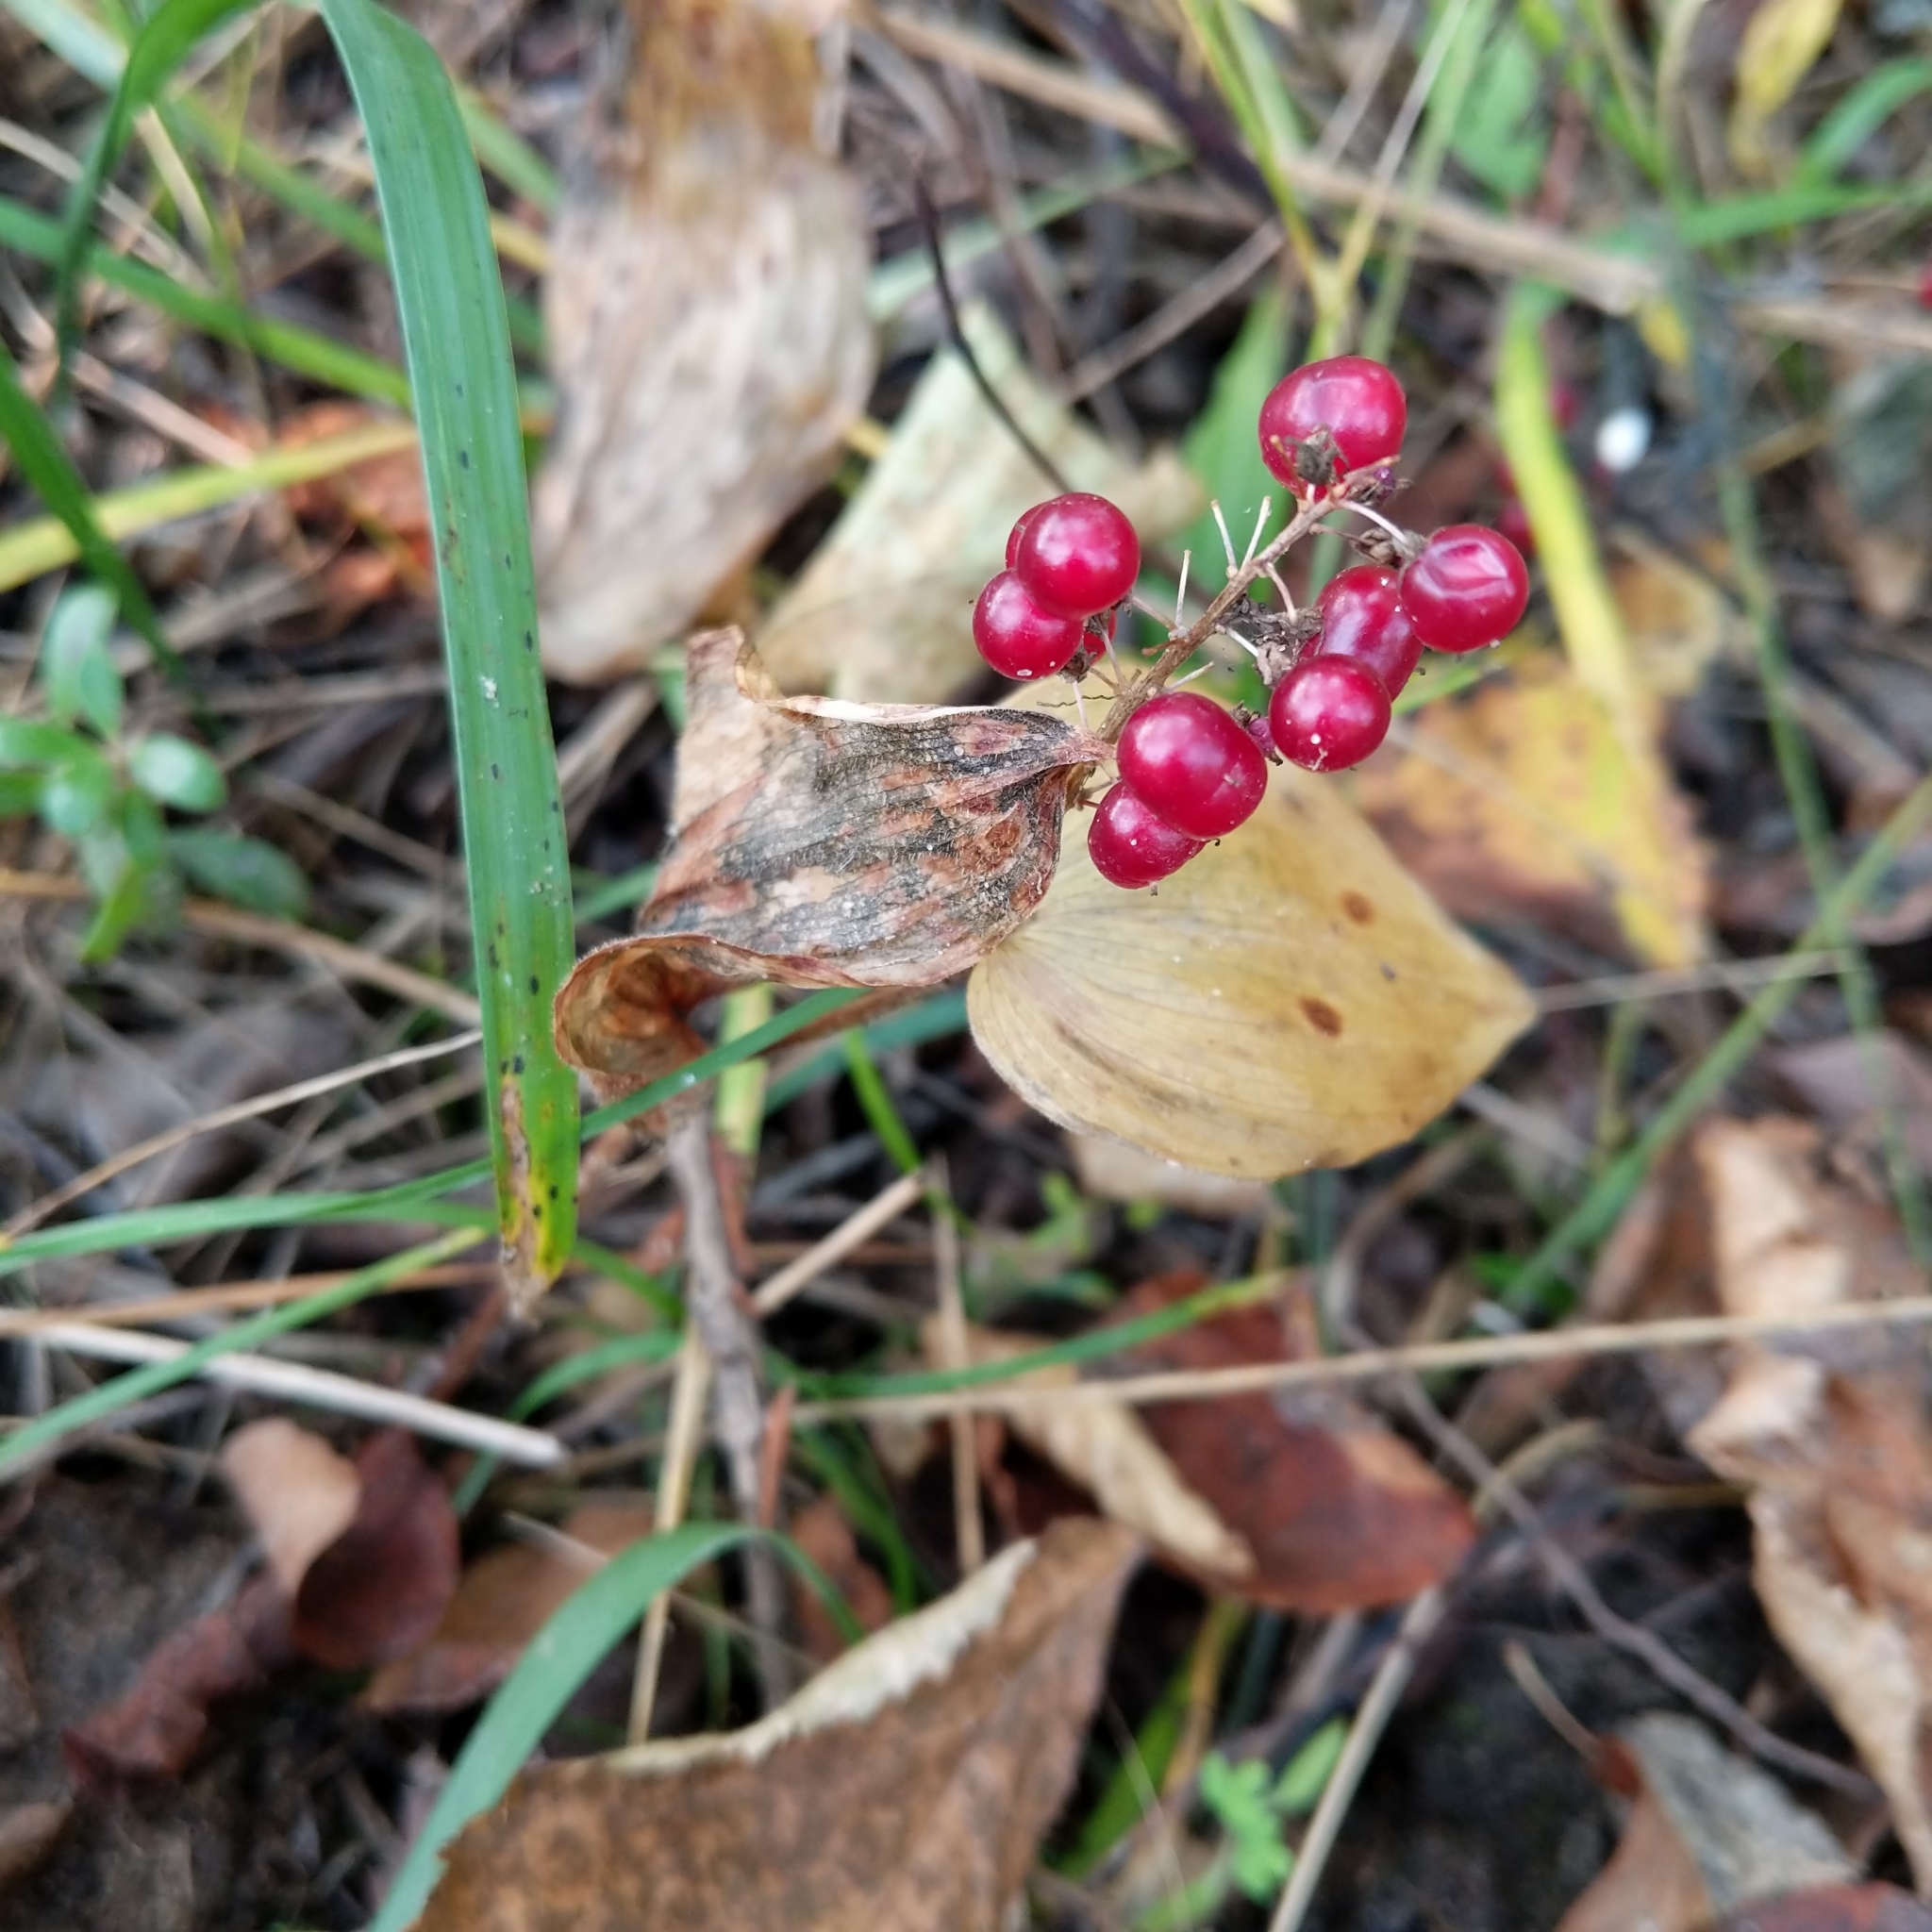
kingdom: Plantae
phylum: Tracheophyta
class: Liliopsida
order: Asparagales
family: Asparagaceae
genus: Maianthemum
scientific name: Maianthemum canadense
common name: False lily-of-the-valley
